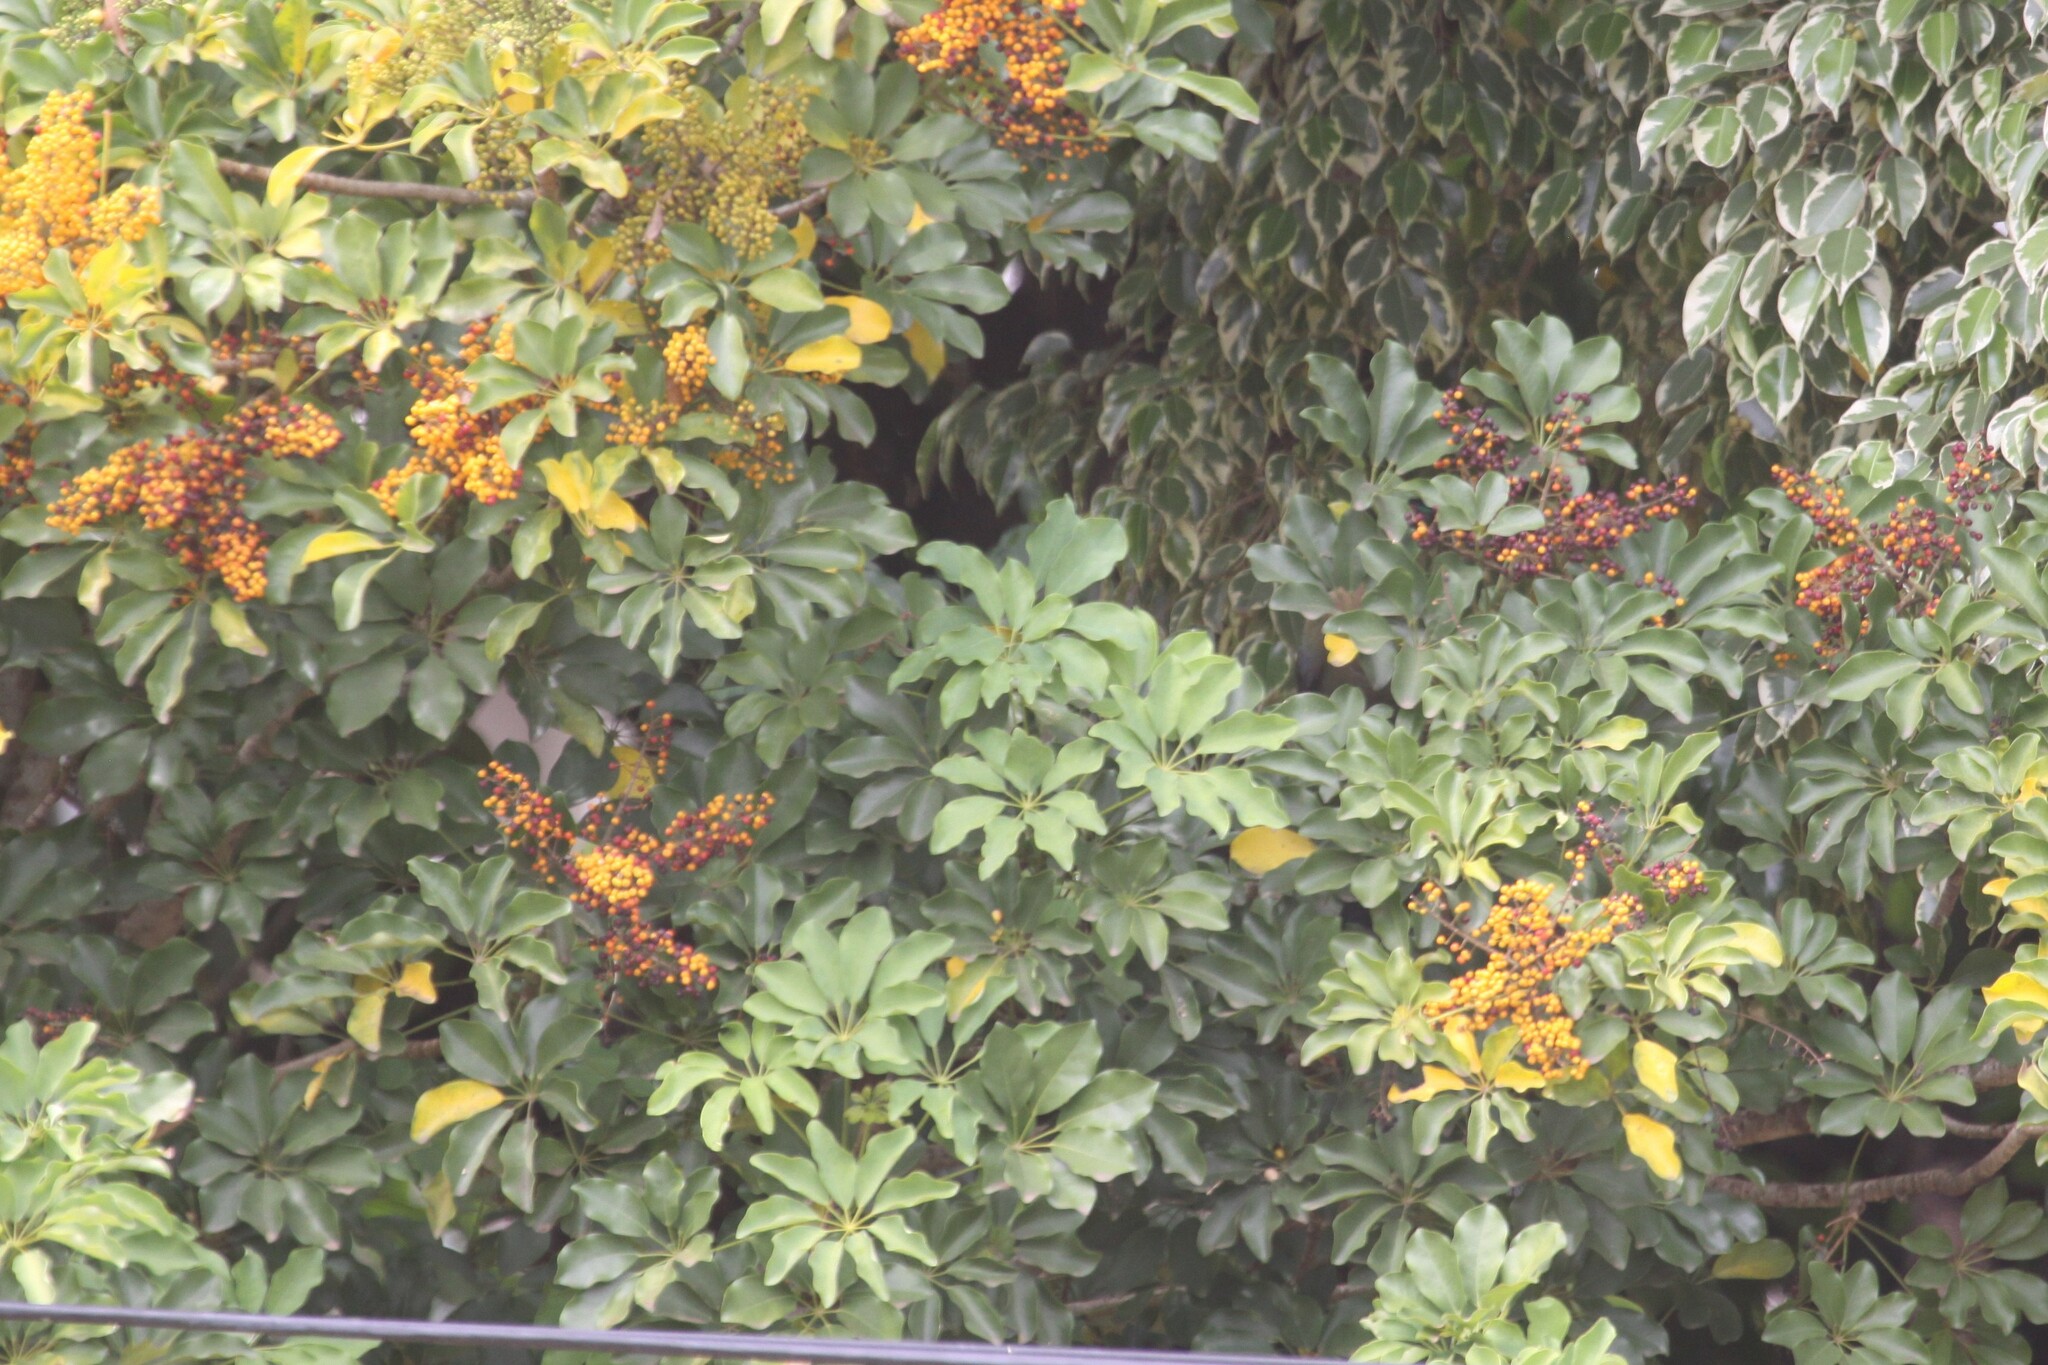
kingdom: Plantae
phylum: Tracheophyta
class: Magnoliopsida
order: Apiales
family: Araliaceae
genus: Heptapleurum
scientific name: Heptapleurum arboricola
